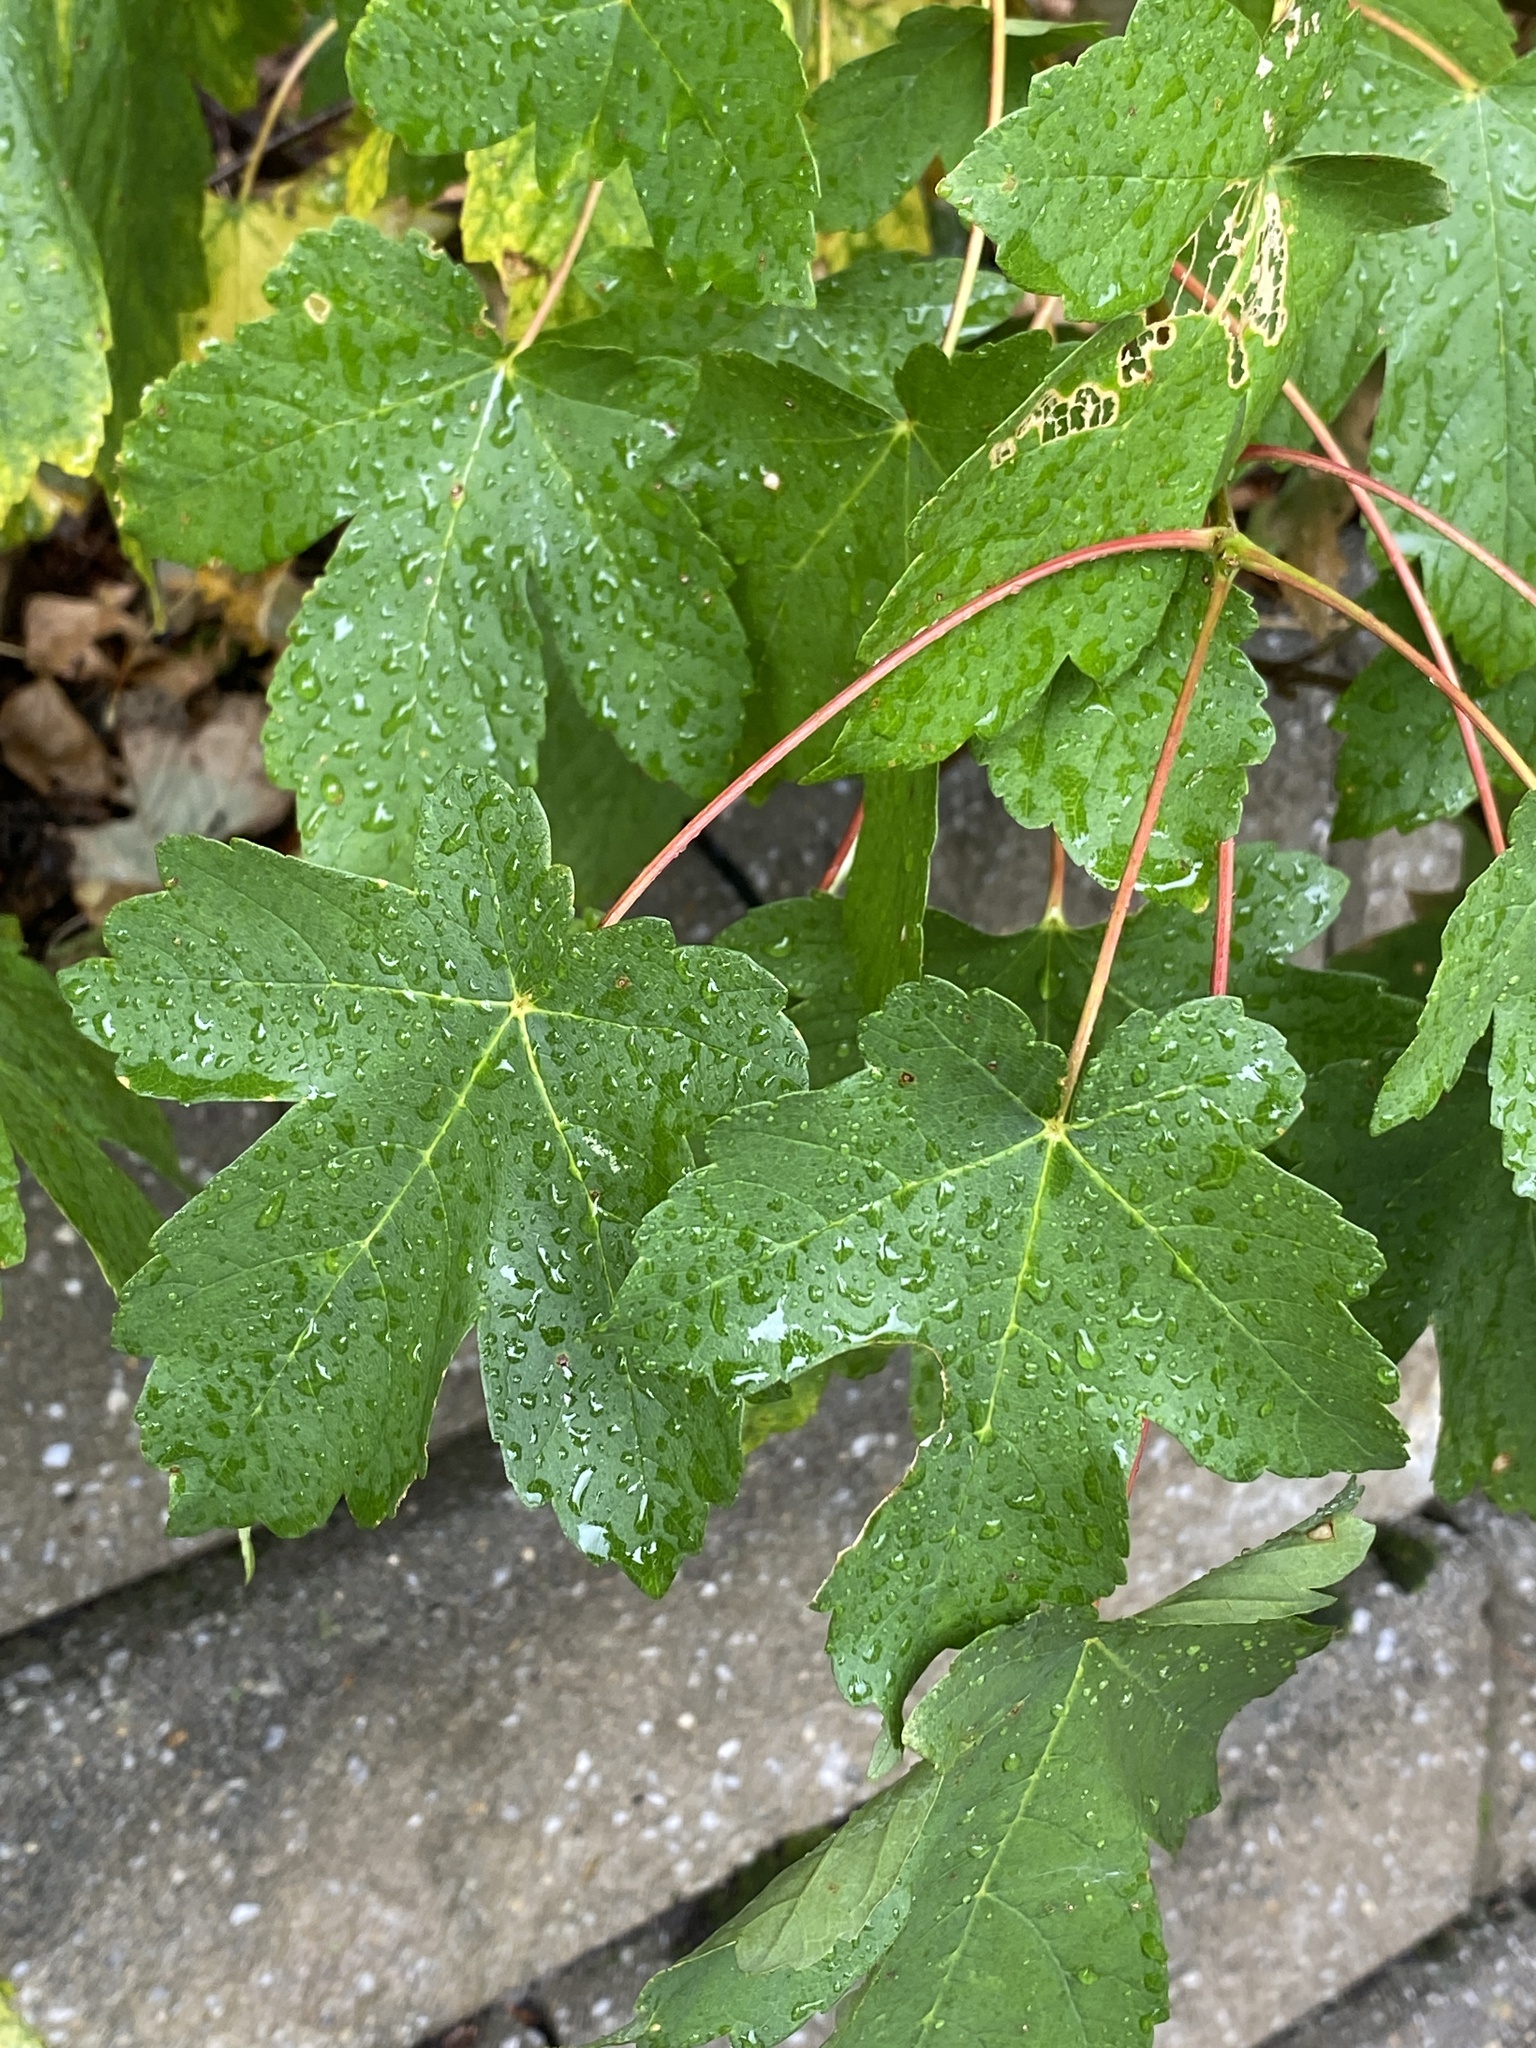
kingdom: Plantae
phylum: Tracheophyta
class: Magnoliopsida
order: Sapindales
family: Sapindaceae
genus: Acer
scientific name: Acer pseudoplatanus
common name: Sycamore
